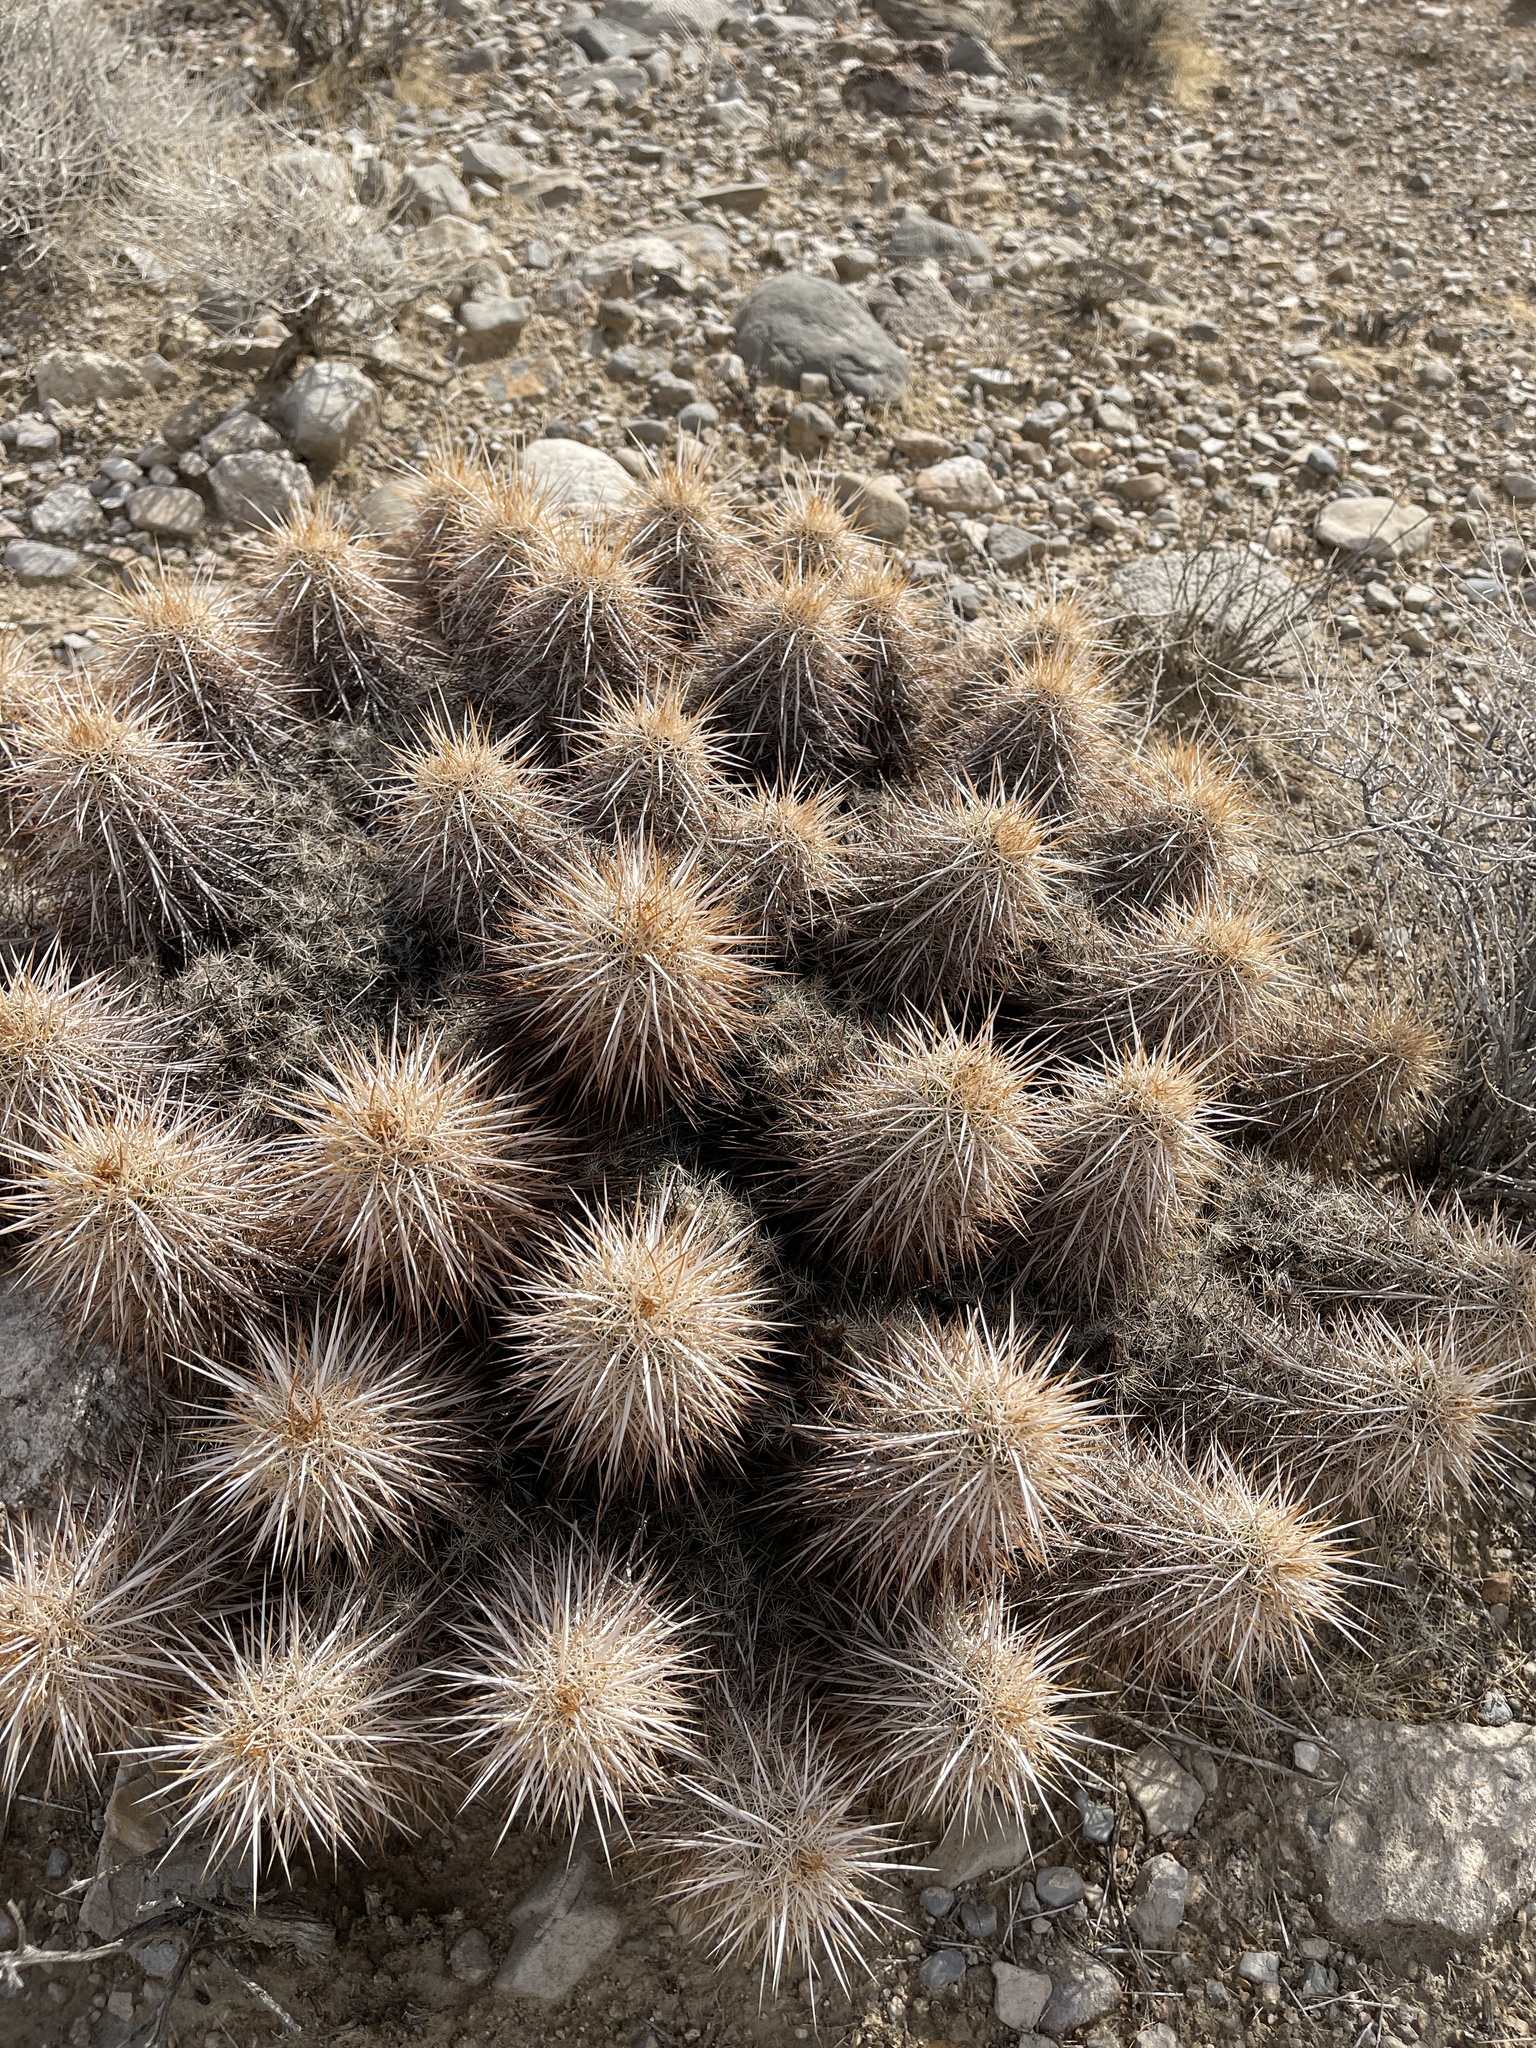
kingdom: Plantae
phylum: Tracheophyta
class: Magnoliopsida
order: Caryophyllales
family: Cactaceae
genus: Echinocereus
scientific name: Echinocereus engelmannii
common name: Engelmann's hedgehog cactus
